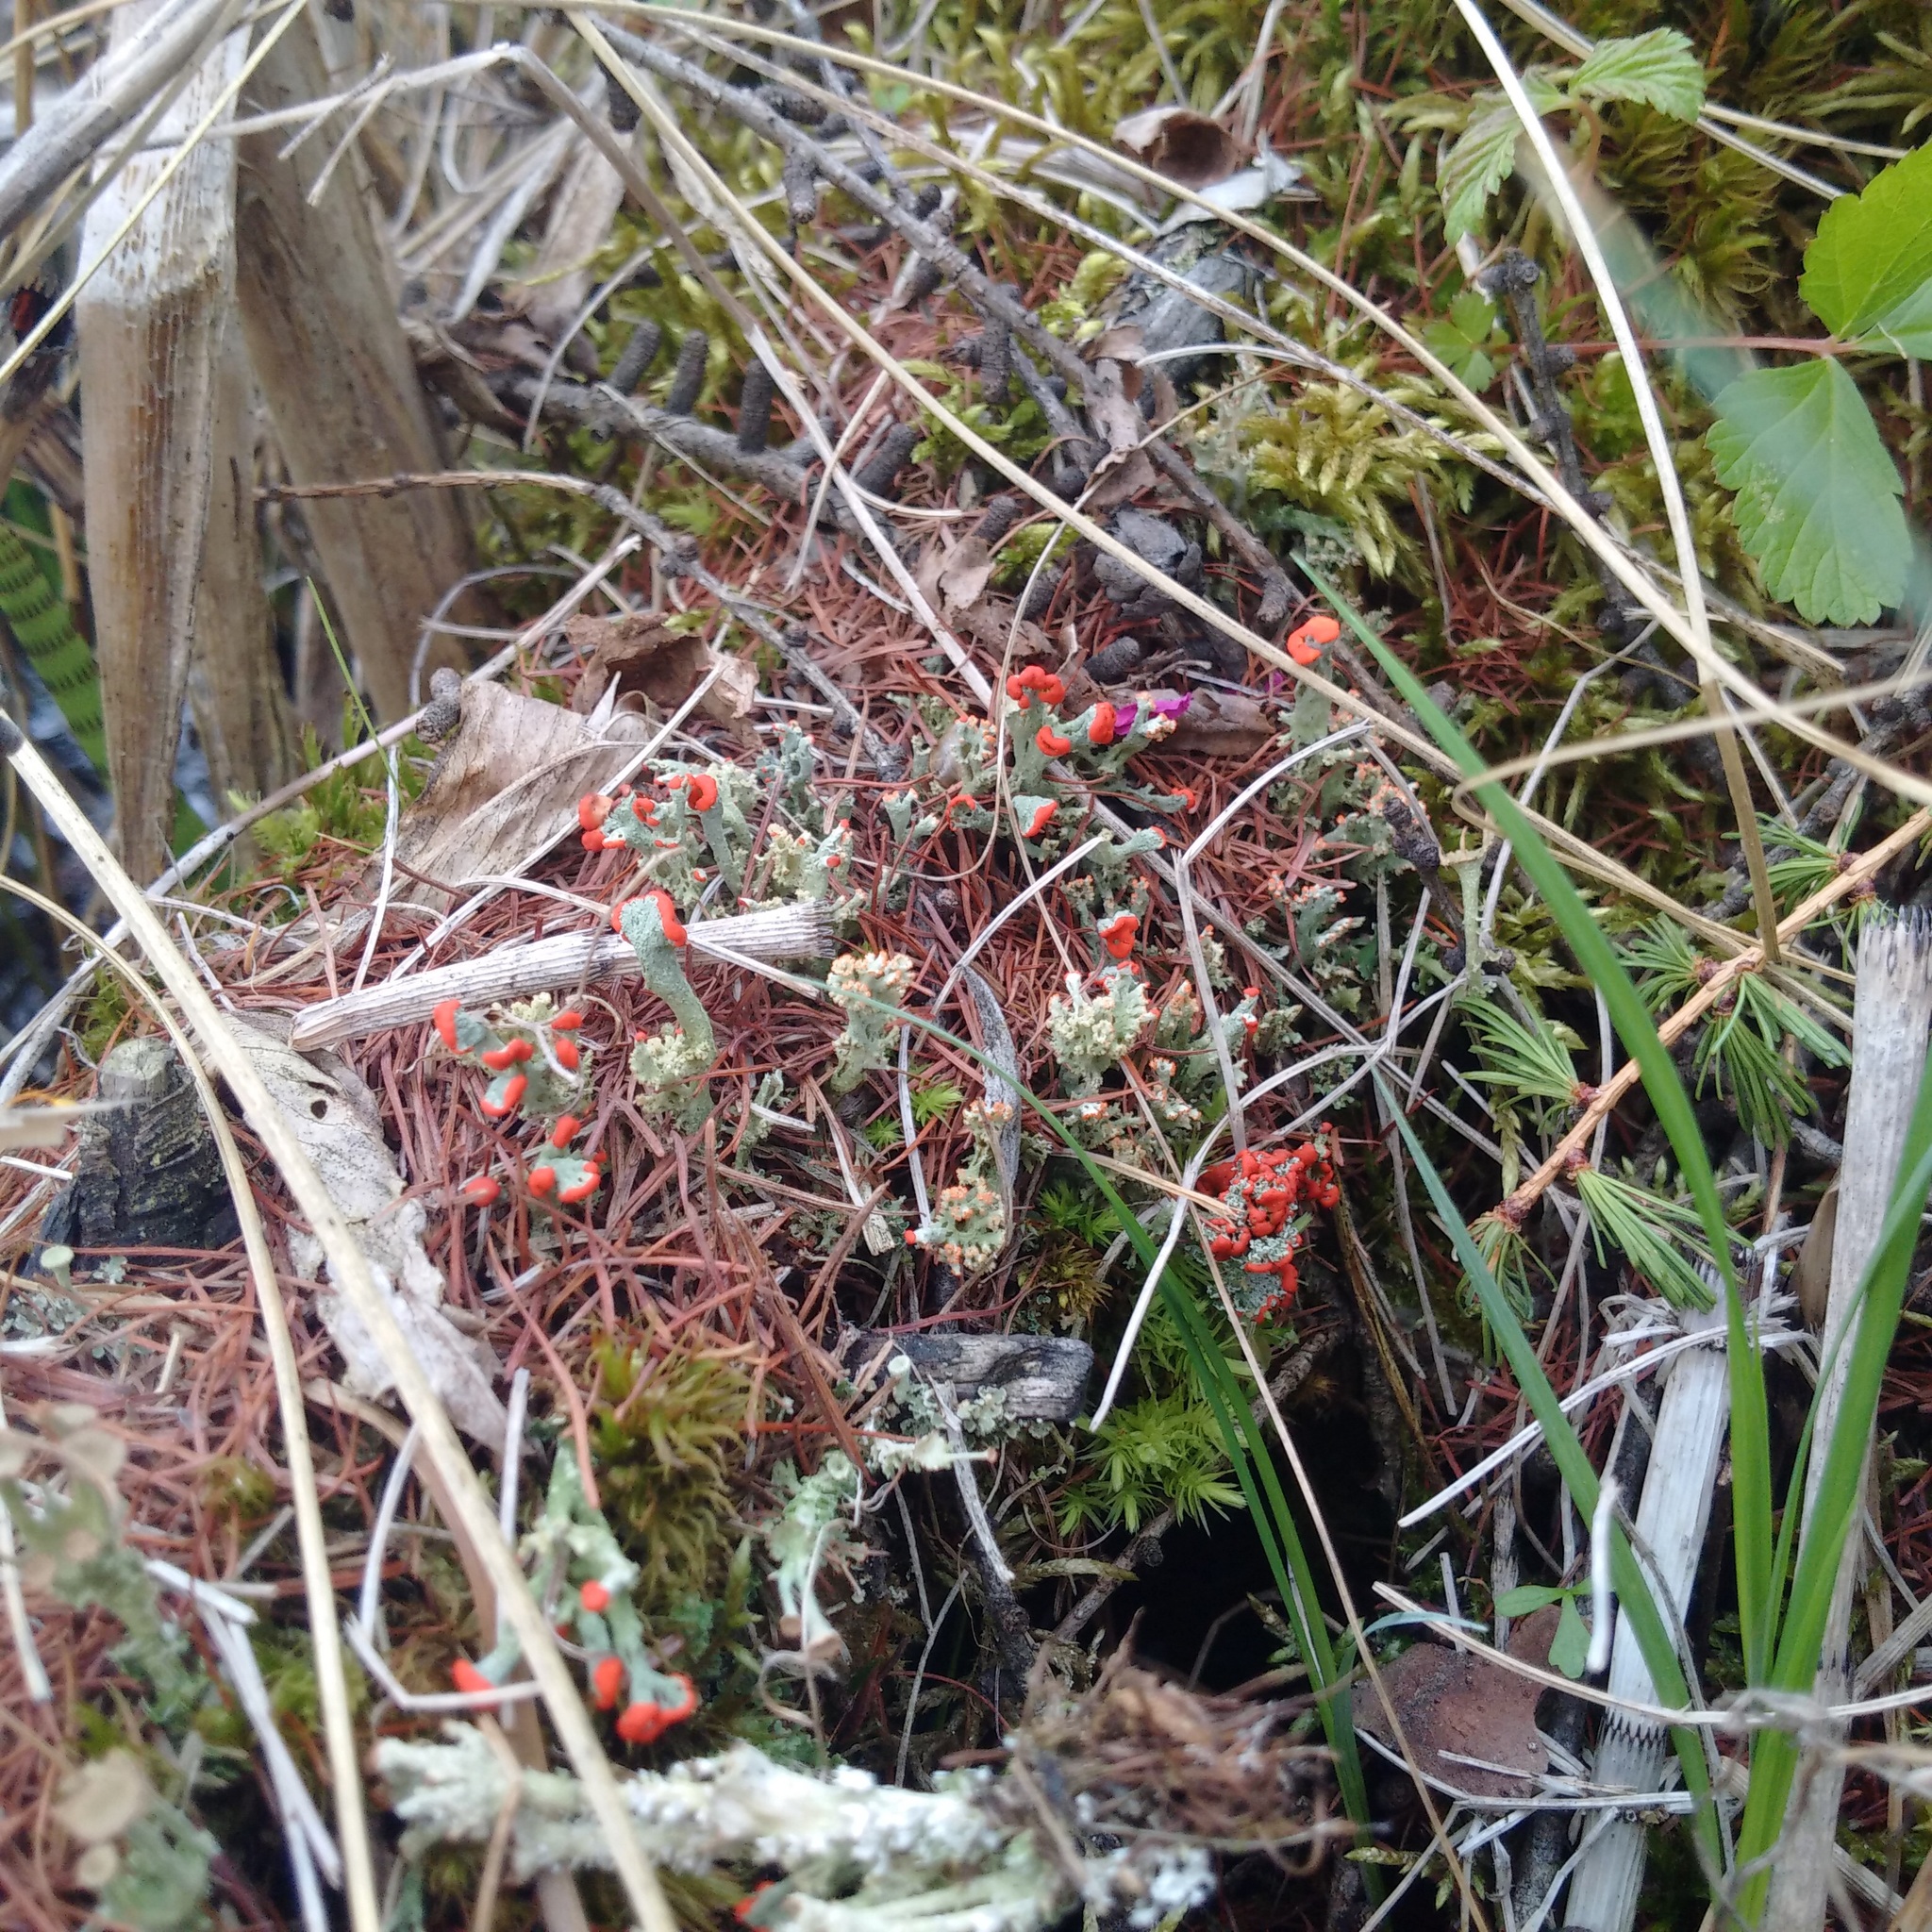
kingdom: Fungi
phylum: Ascomycota
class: Lecanoromycetes
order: Lecanorales
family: Cladoniaceae
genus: Cladonia
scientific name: Cladonia cristatella
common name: British soldier lichen
